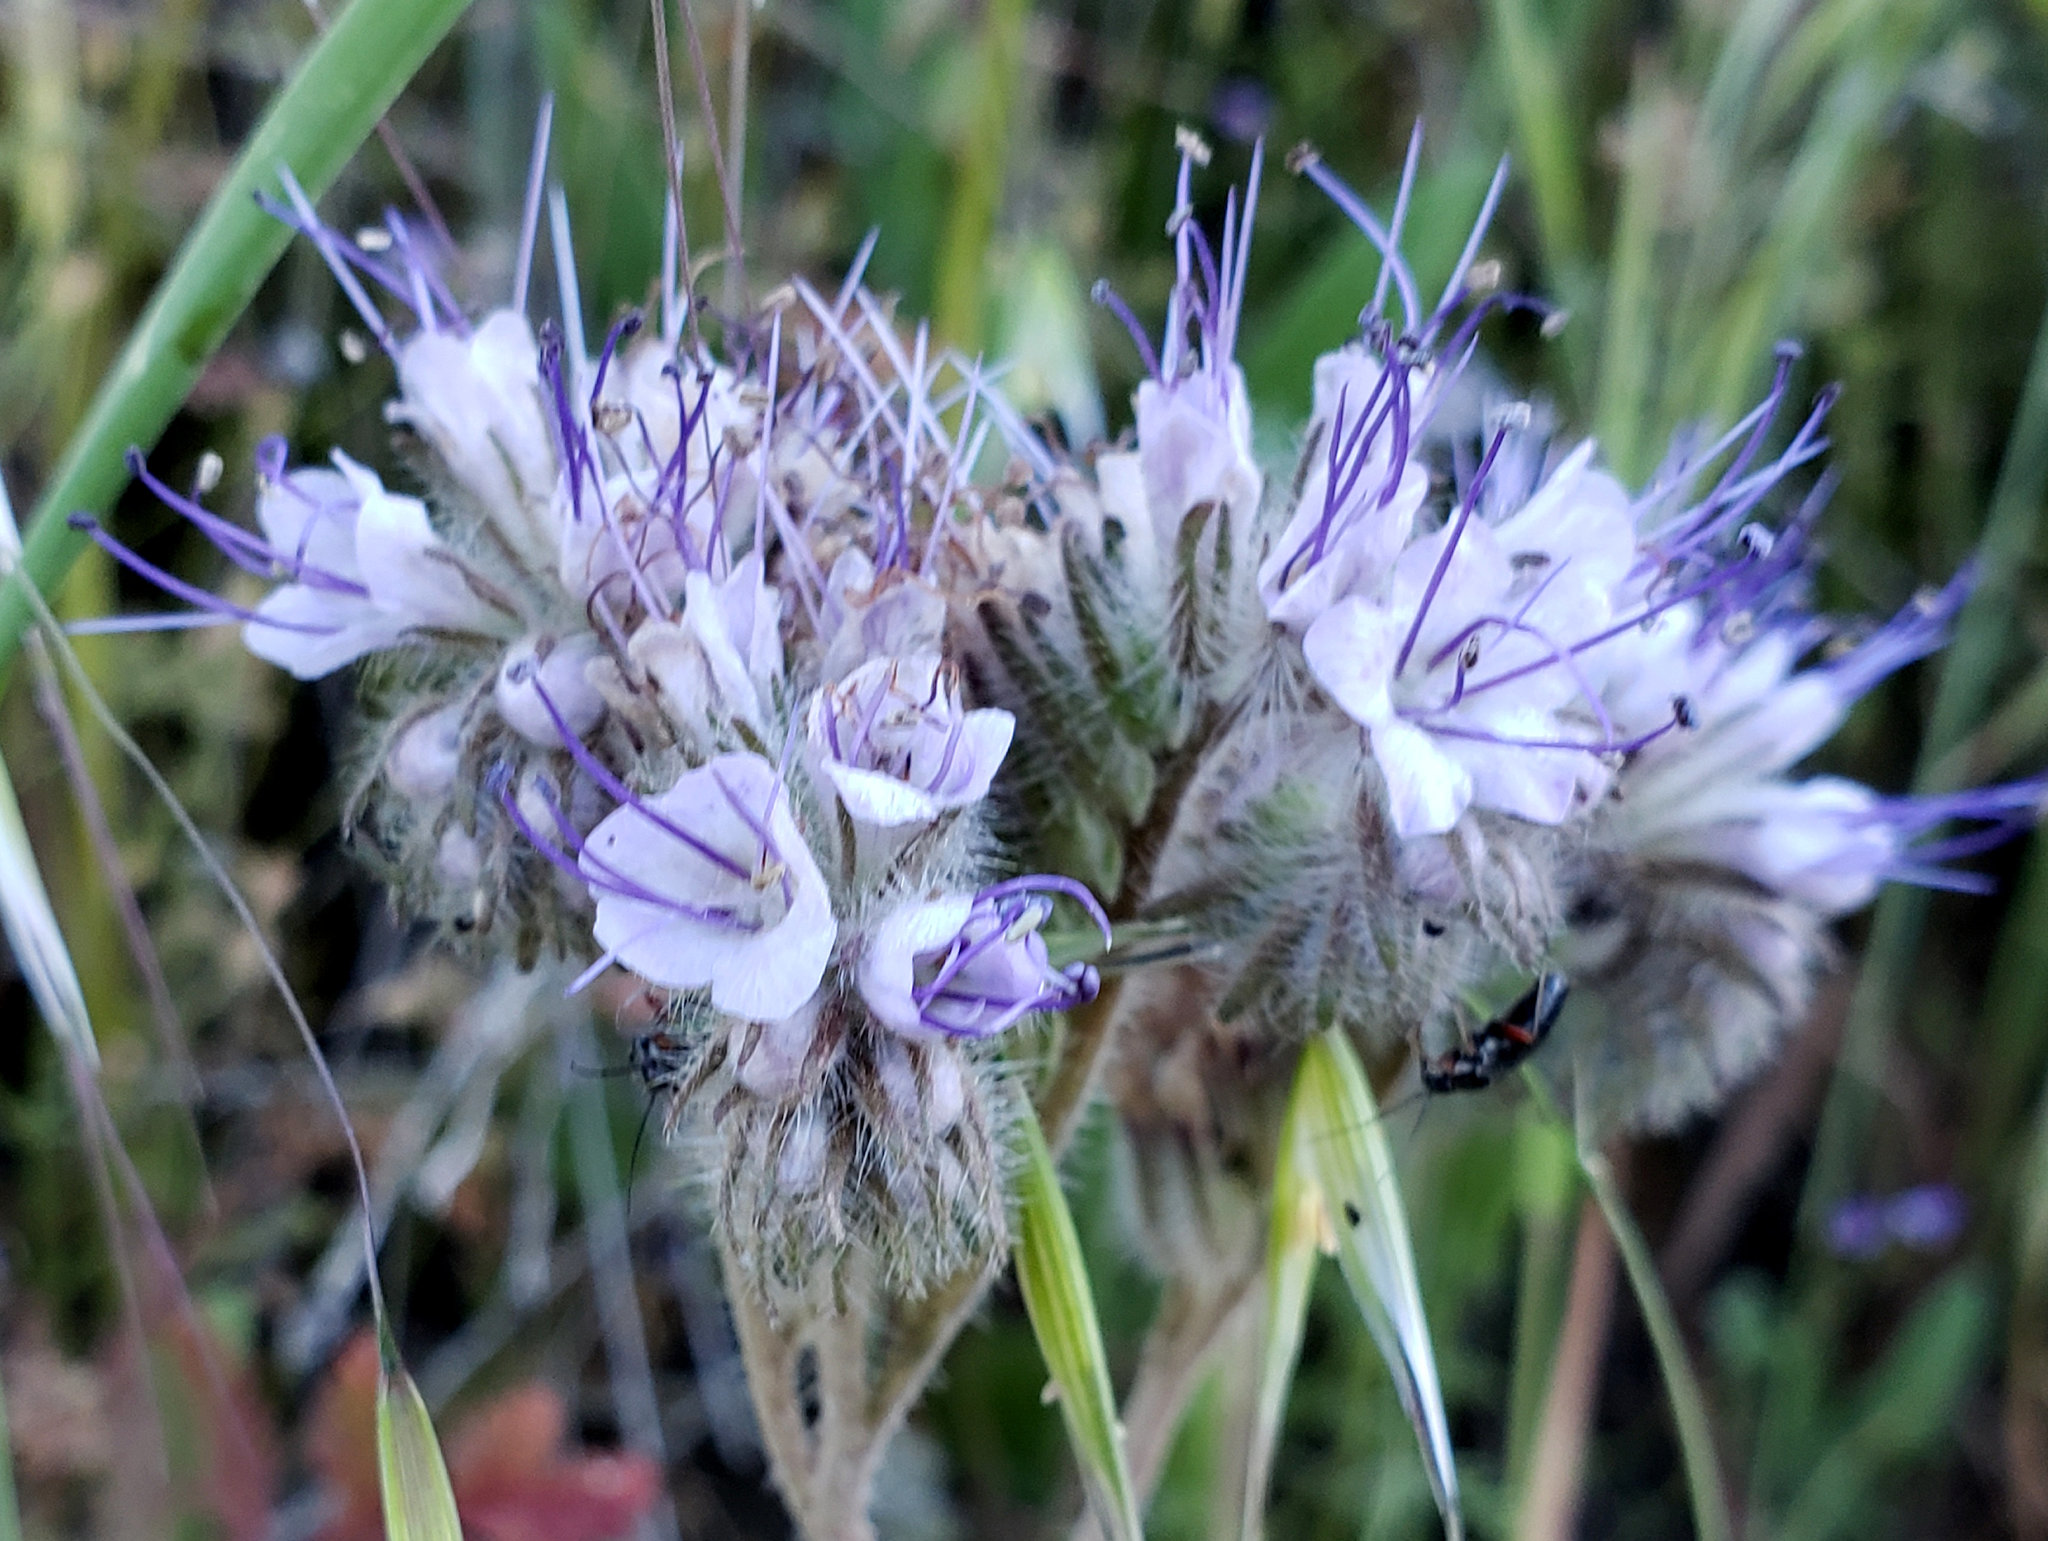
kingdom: Plantae
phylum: Tracheophyta
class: Magnoliopsida
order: Boraginales
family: Hydrophyllaceae
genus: Phacelia
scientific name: Phacelia tanacetifolia
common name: Phacelia
